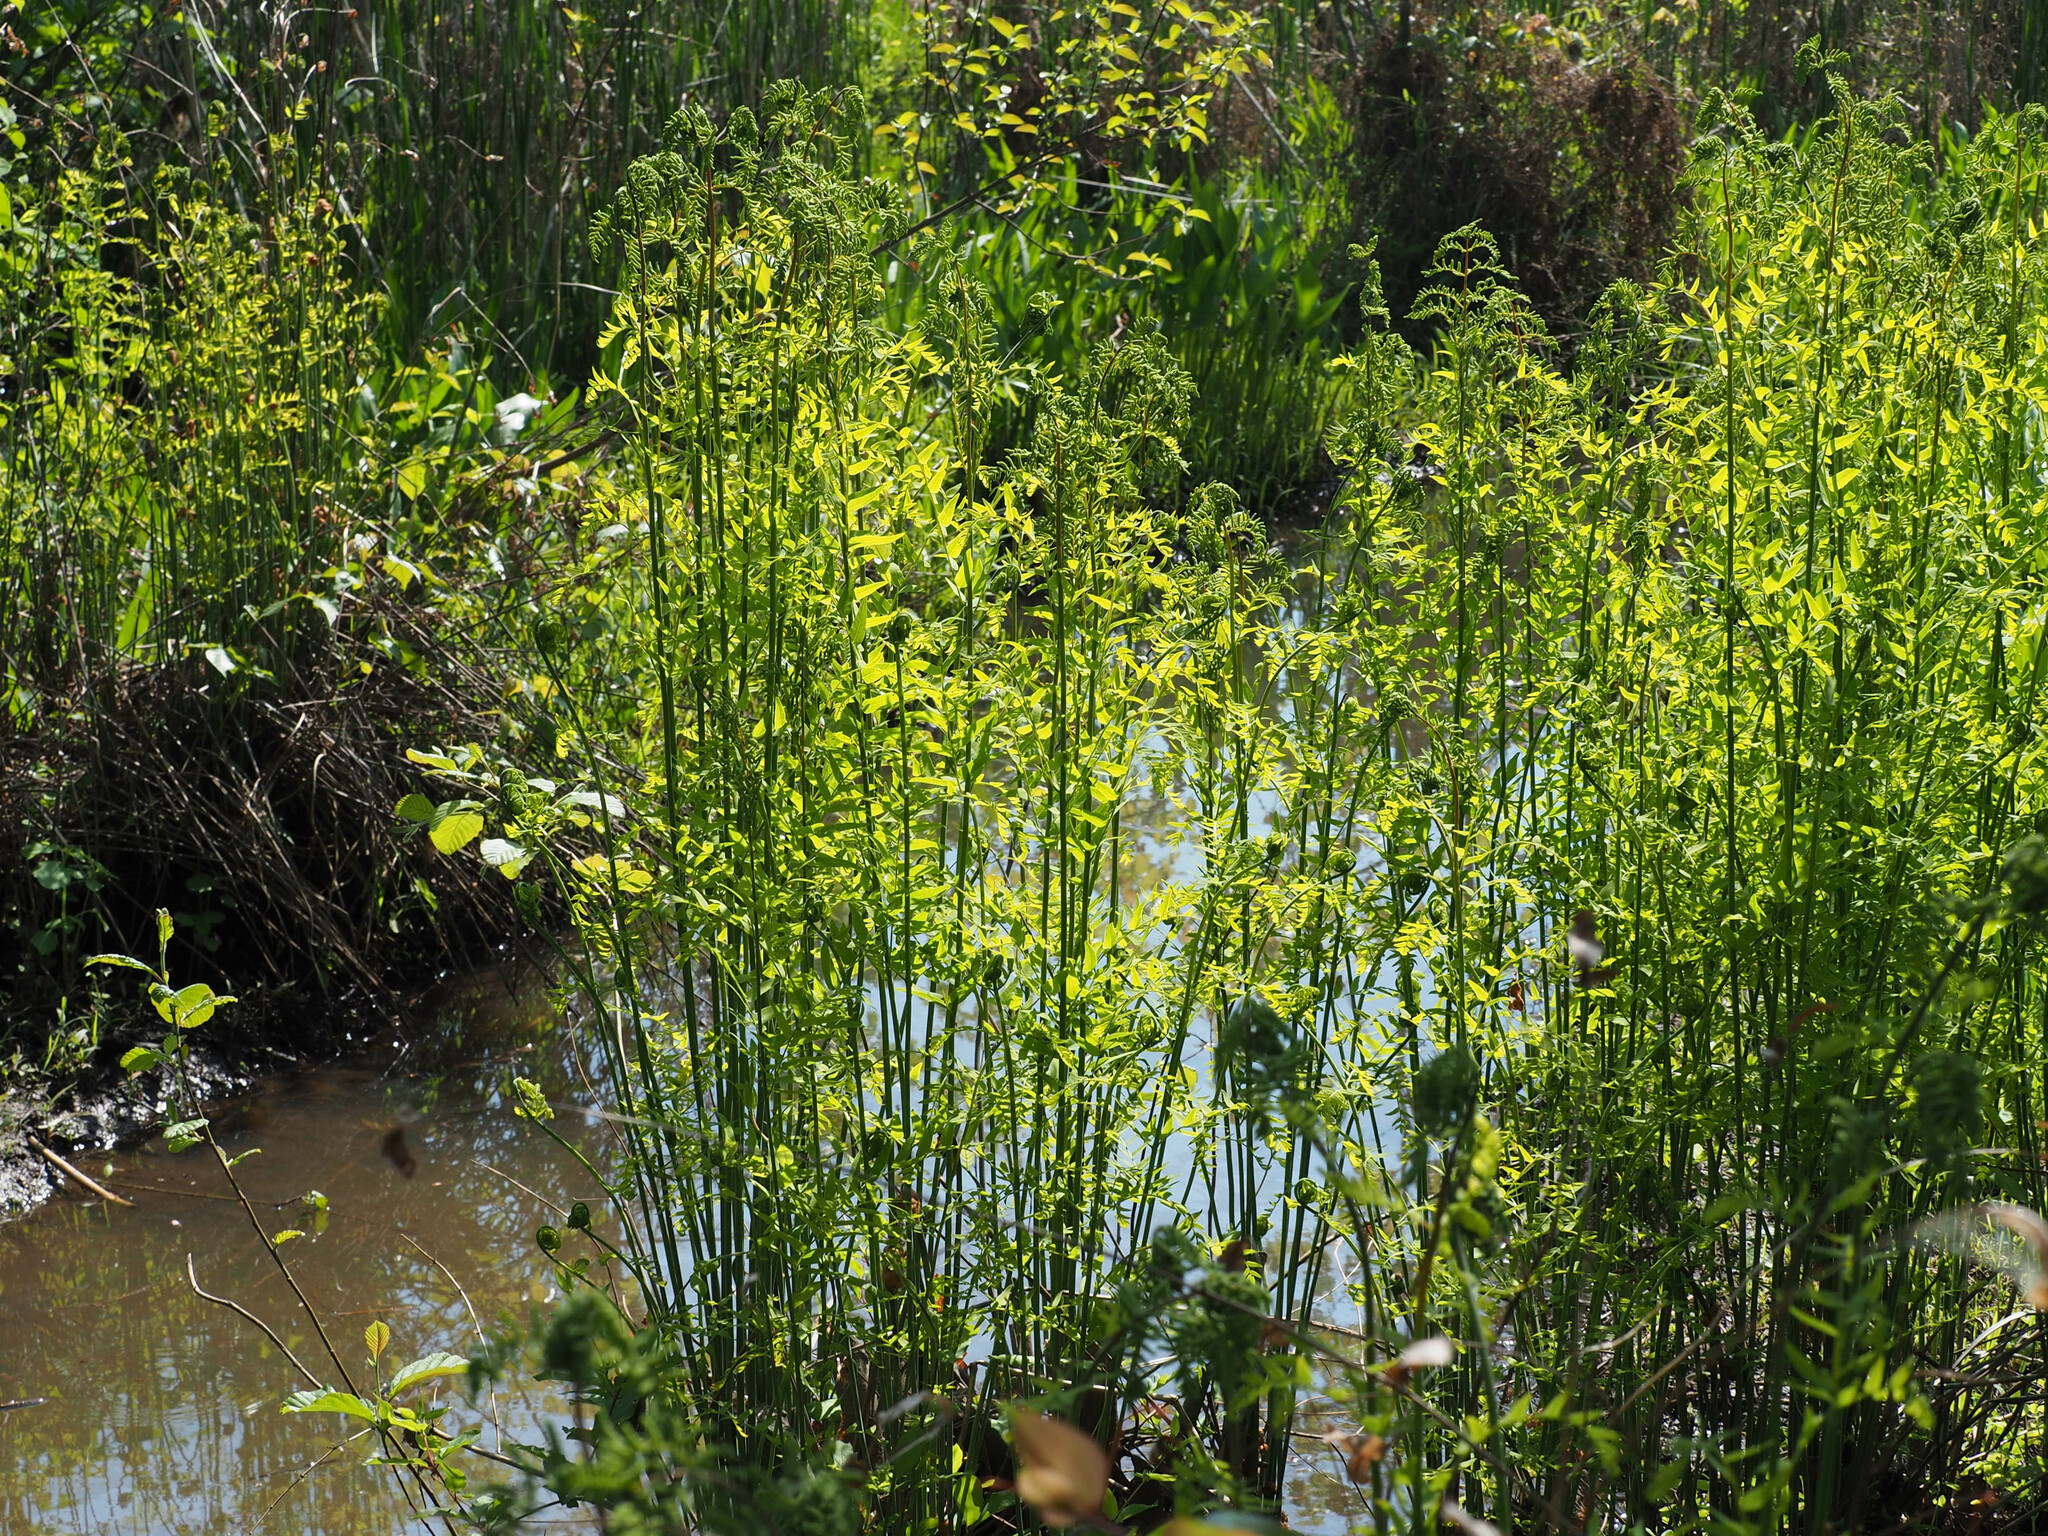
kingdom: Plantae
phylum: Tracheophyta
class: Polypodiopsida
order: Osmundales
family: Osmundaceae
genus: Osmunda
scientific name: Osmunda spectabilis
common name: American royal fern
